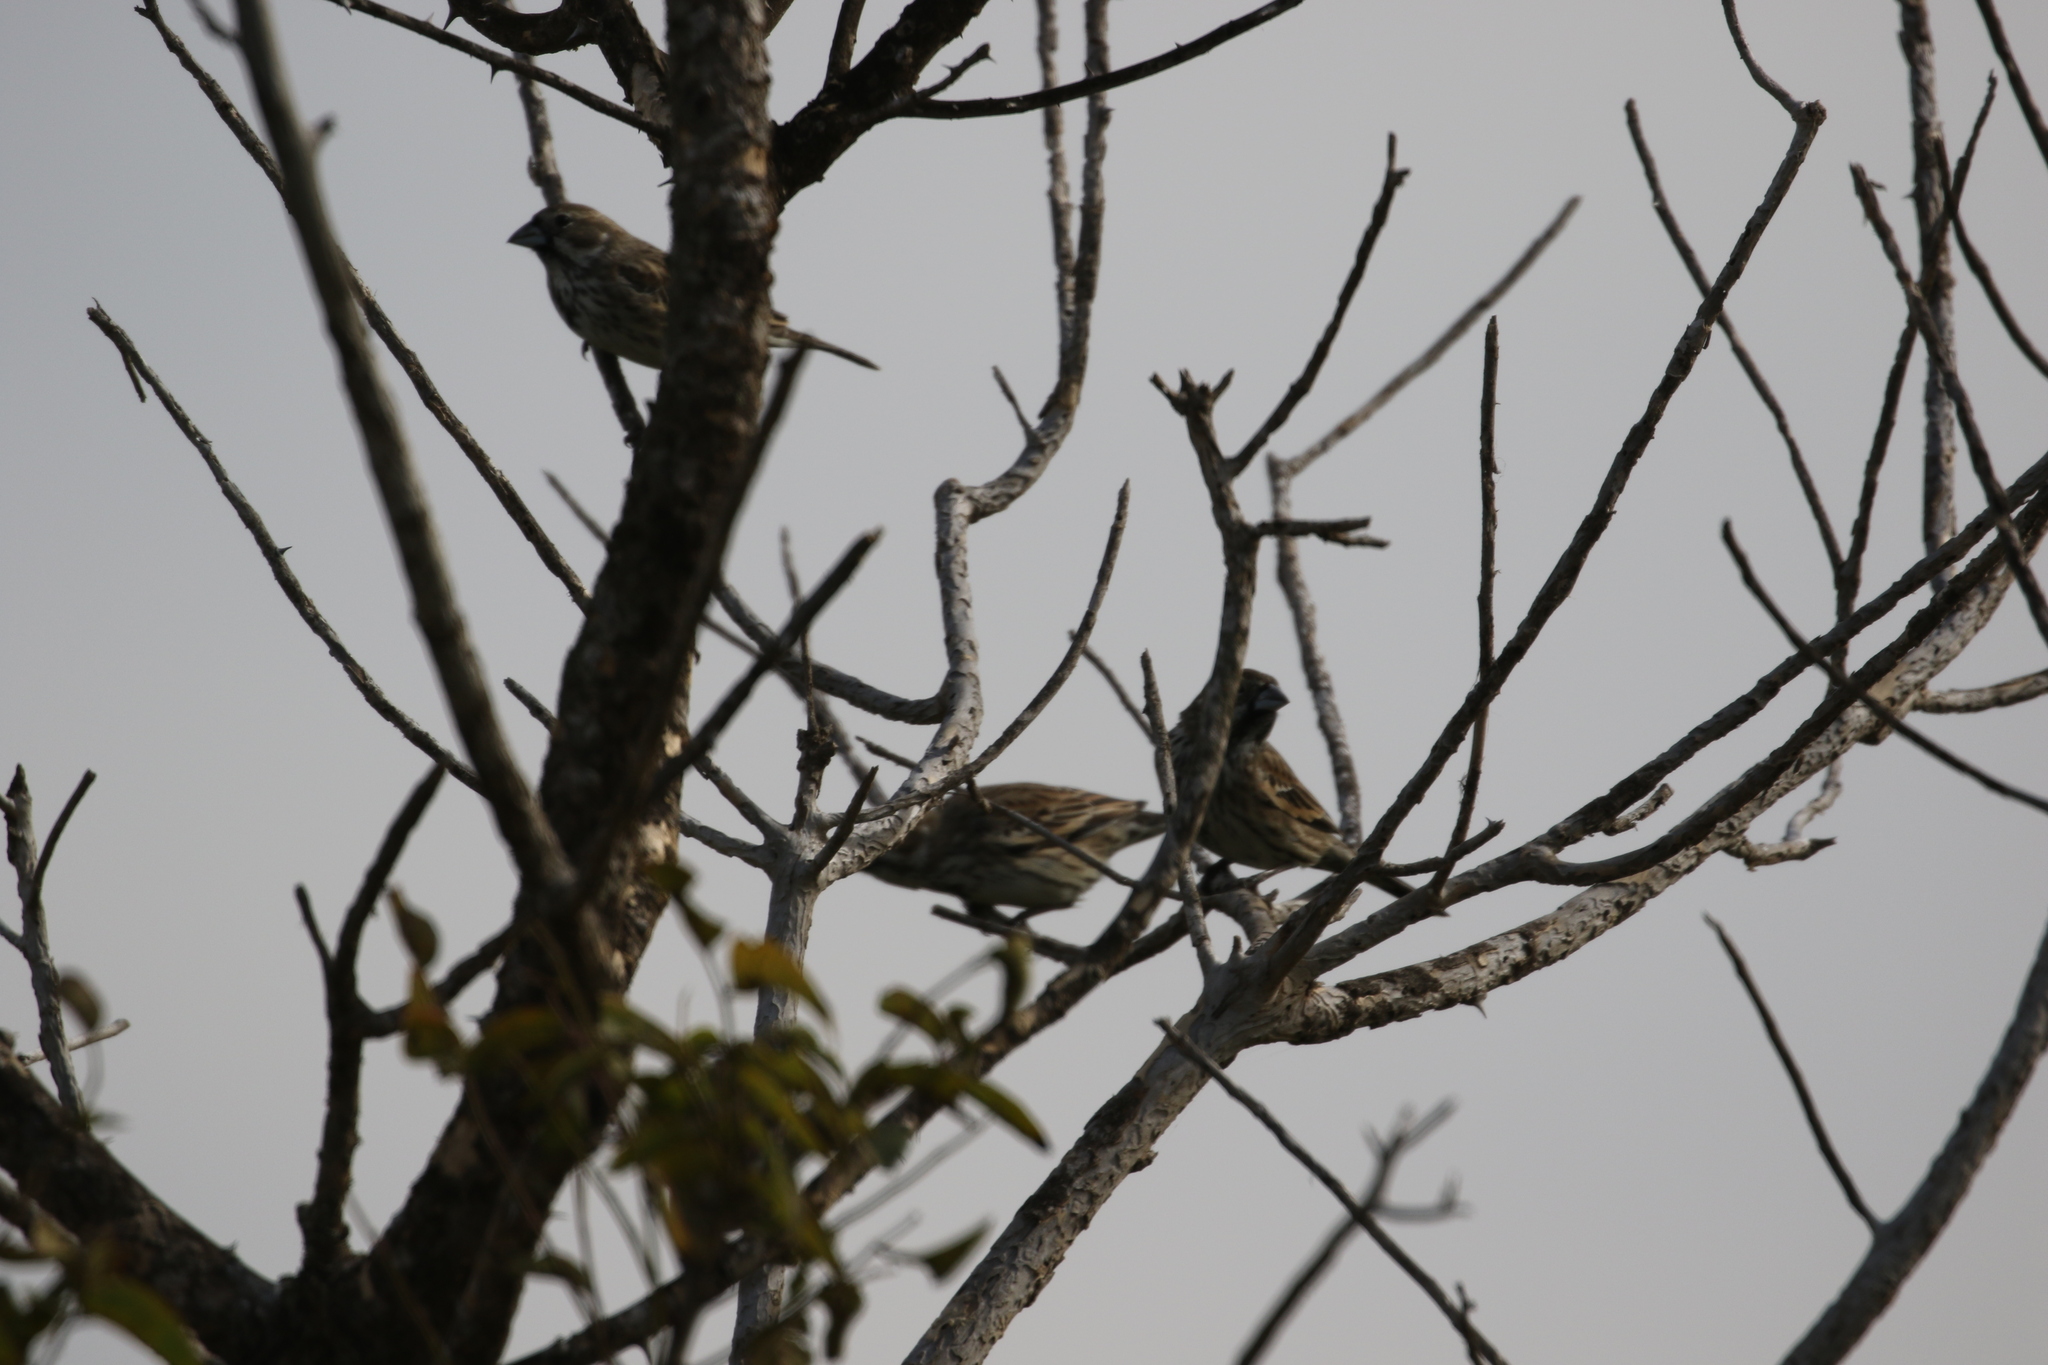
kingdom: Animalia
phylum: Chordata
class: Aves
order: Passeriformes
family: Passerellidae
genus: Calamospiza
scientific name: Calamospiza melanocorys
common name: Lark bunting
